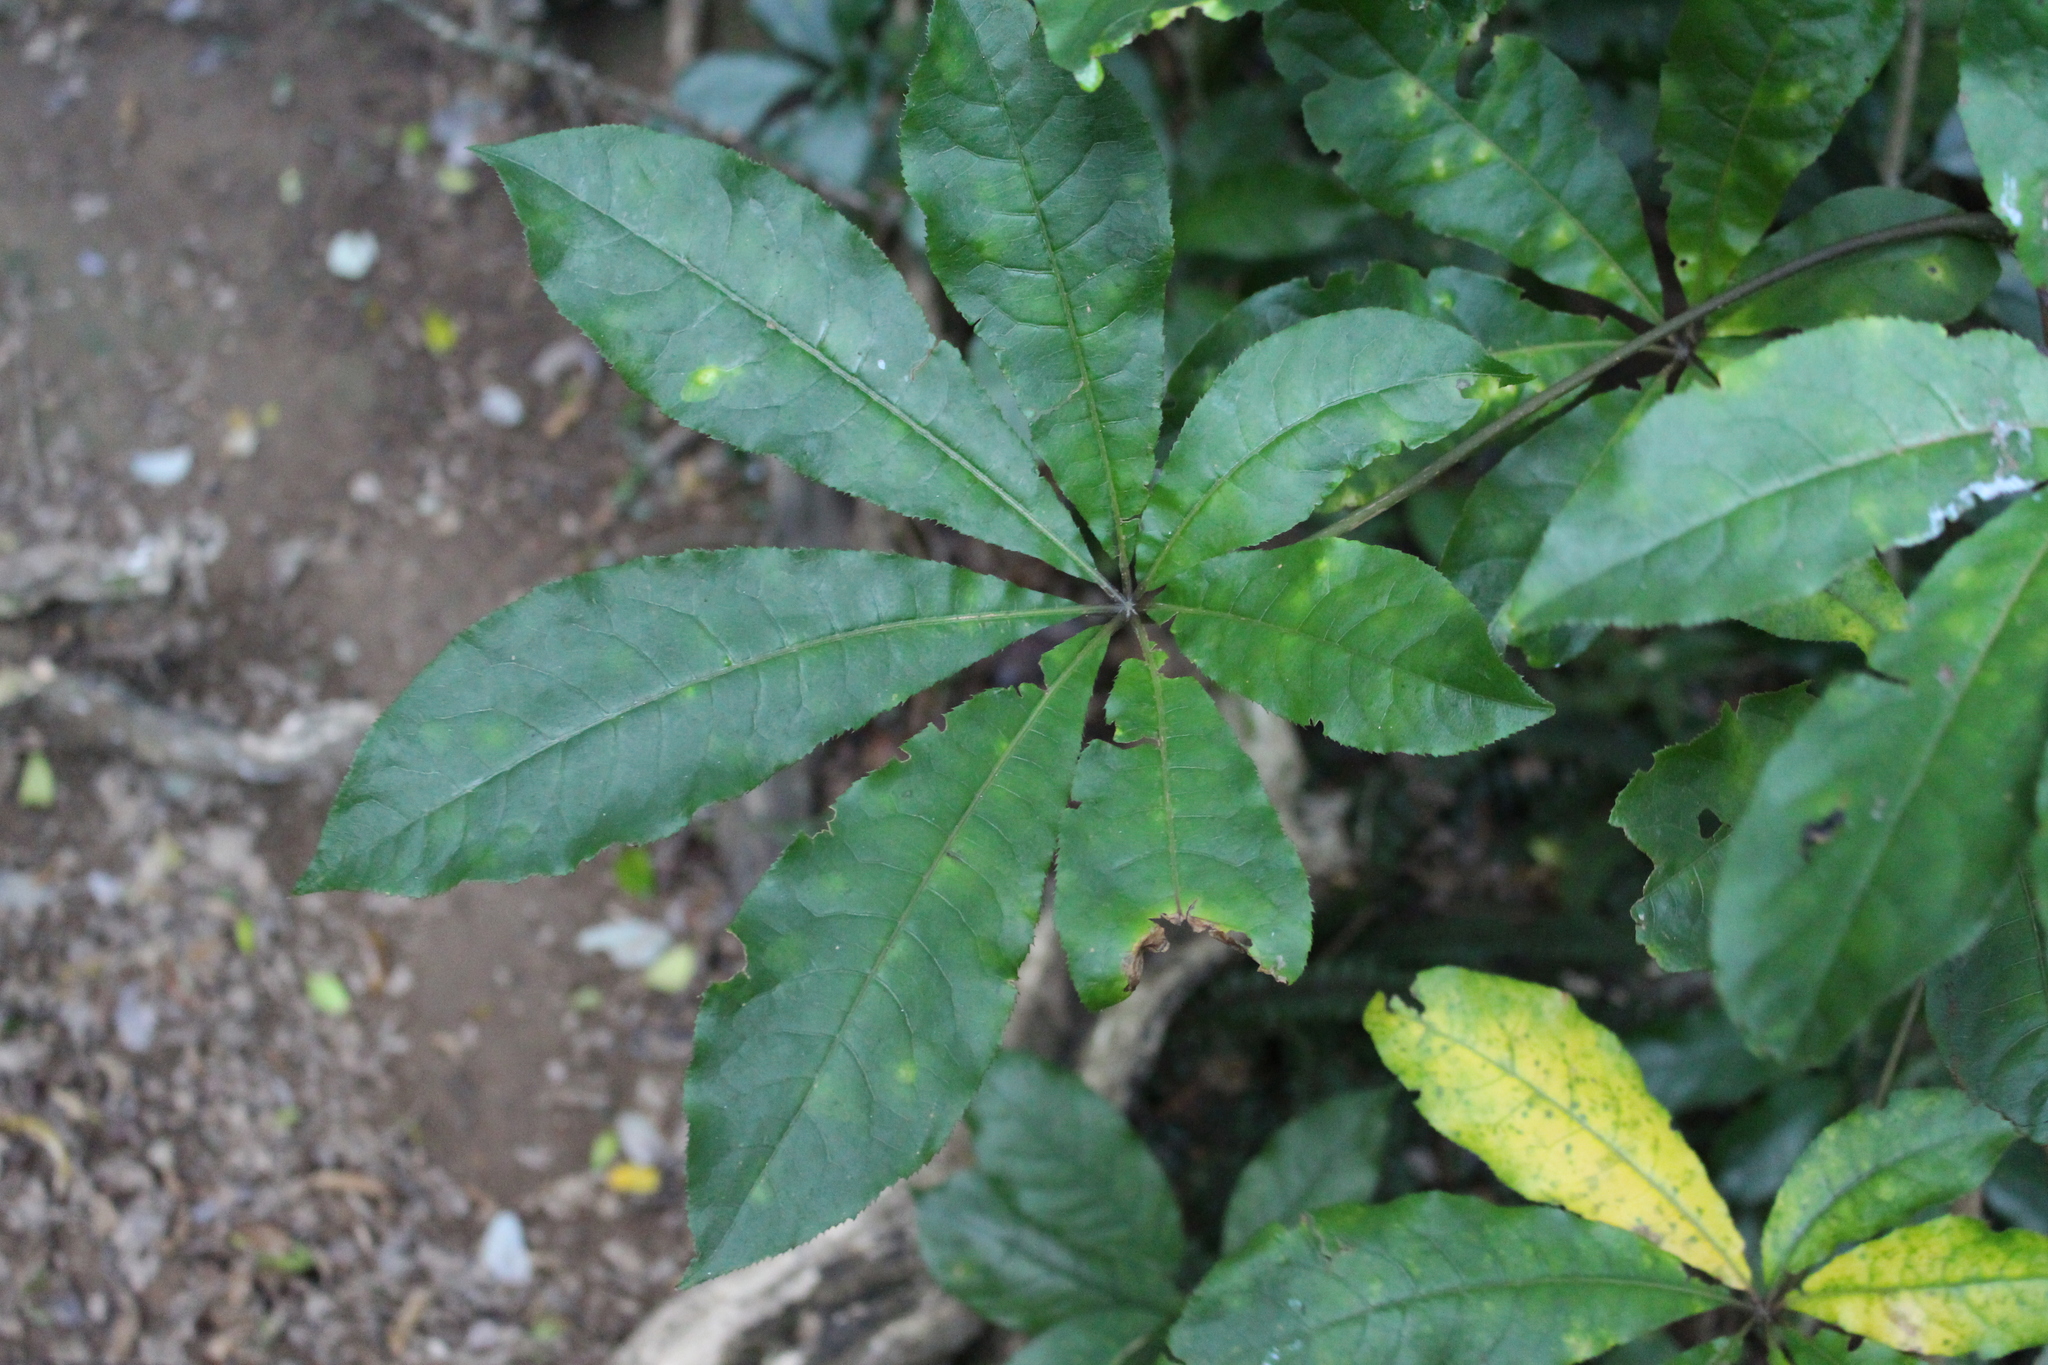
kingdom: Plantae
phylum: Tracheophyta
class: Magnoliopsida
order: Apiales
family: Araliaceae
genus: Schefflera
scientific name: Schefflera digitata
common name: Pate
